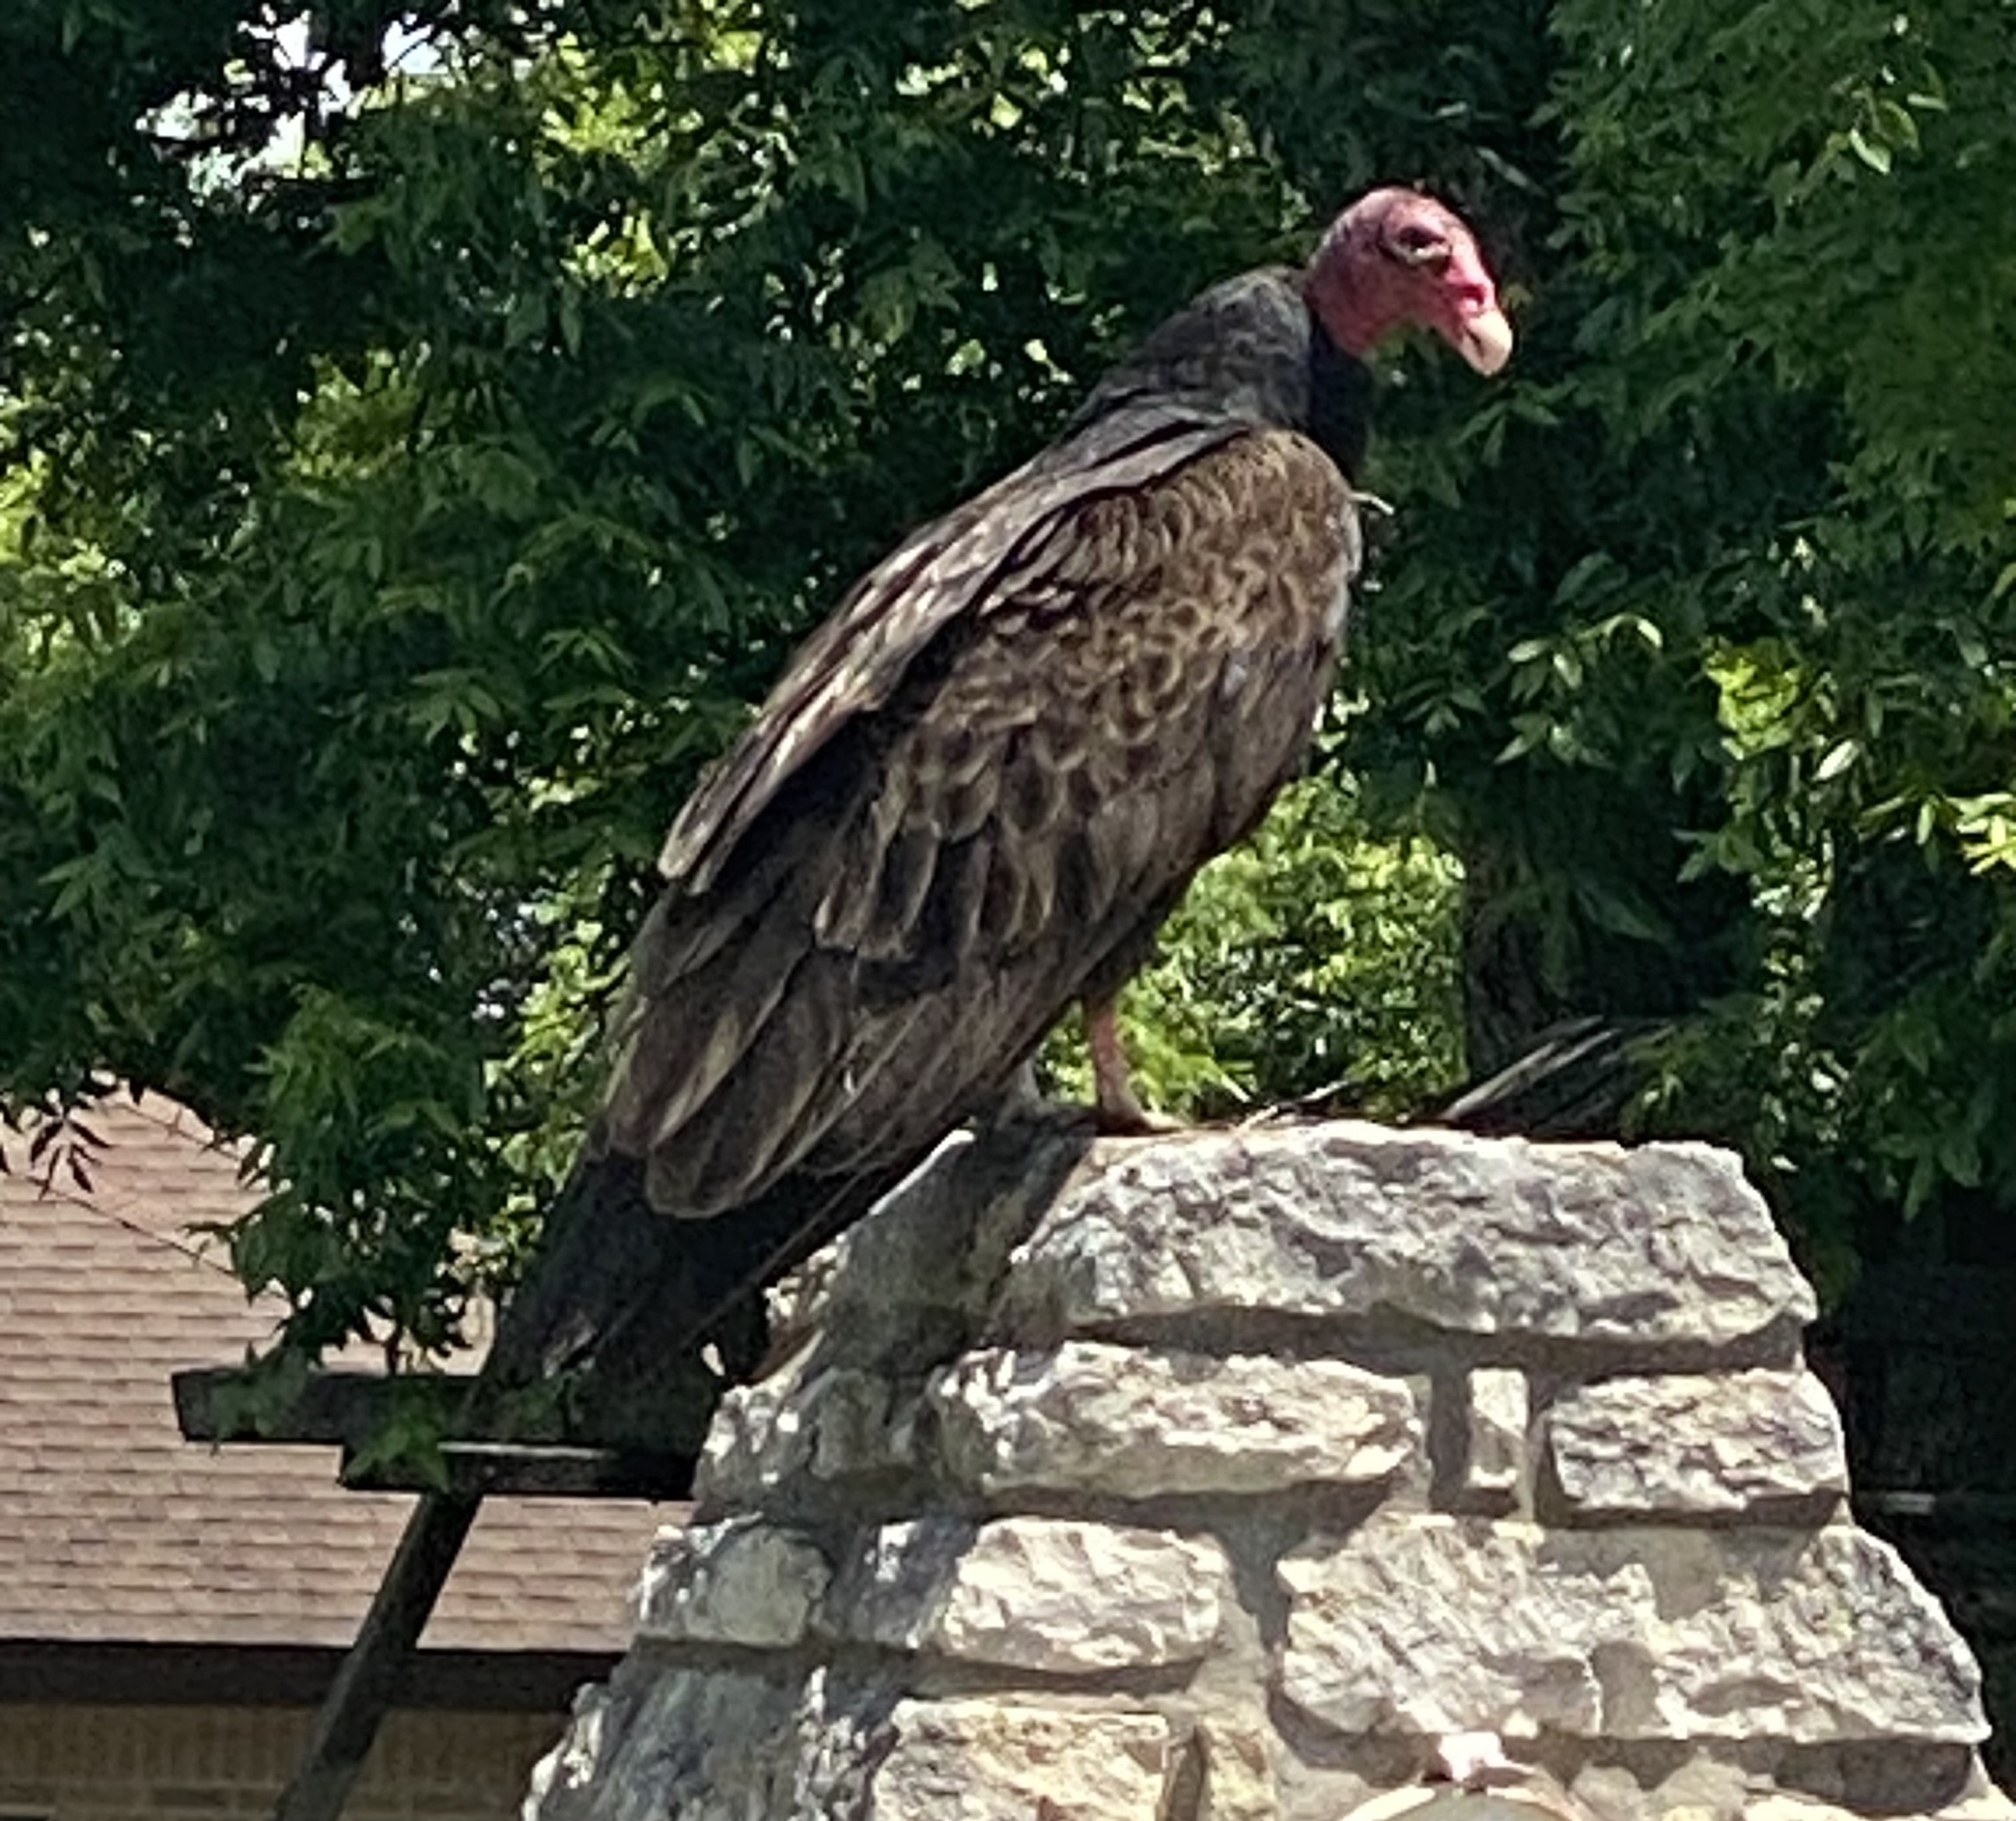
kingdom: Animalia
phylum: Chordata
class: Aves
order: Accipitriformes
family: Cathartidae
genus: Cathartes
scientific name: Cathartes aura
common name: Turkey vulture
